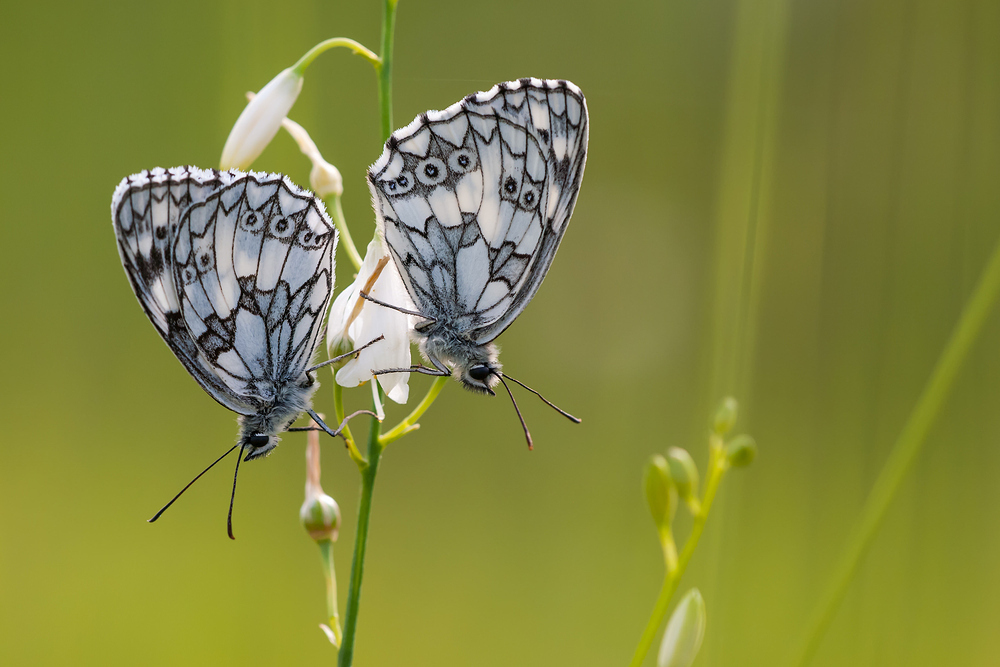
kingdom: Animalia
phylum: Arthropoda
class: Insecta
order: Lepidoptera
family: Nymphalidae
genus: Melanargia
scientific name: Melanargia galathea
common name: Marbled white
